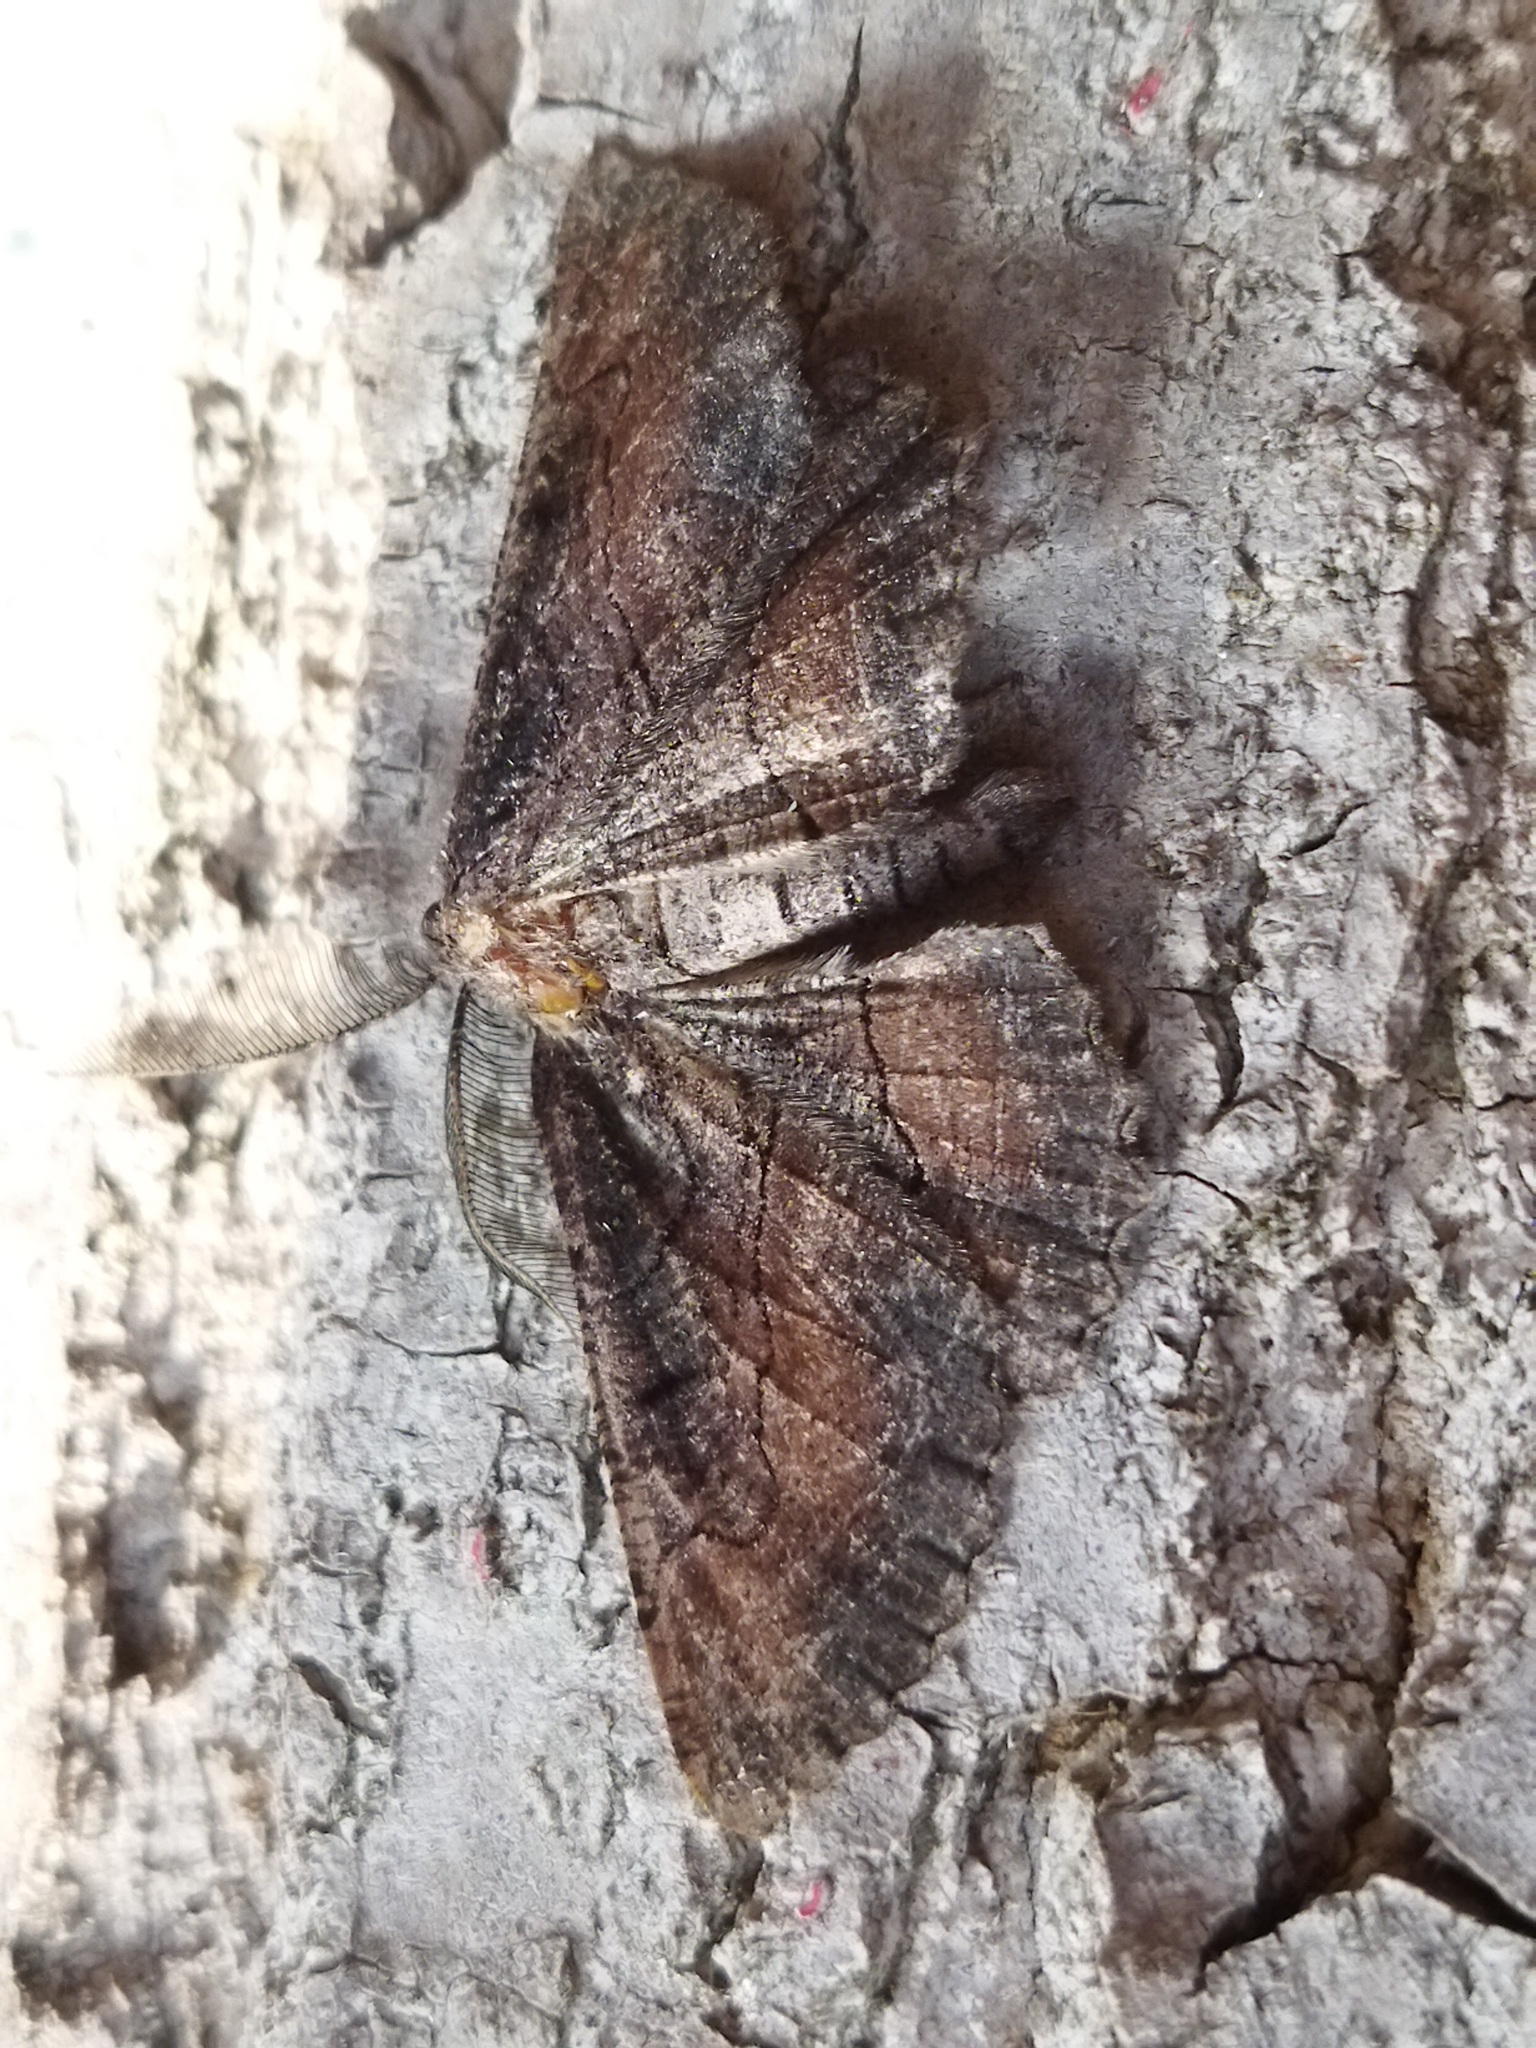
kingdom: Animalia
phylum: Arthropoda
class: Insecta
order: Lepidoptera
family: Geometridae
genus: Nychiodes
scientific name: Nychiodes waltheri
